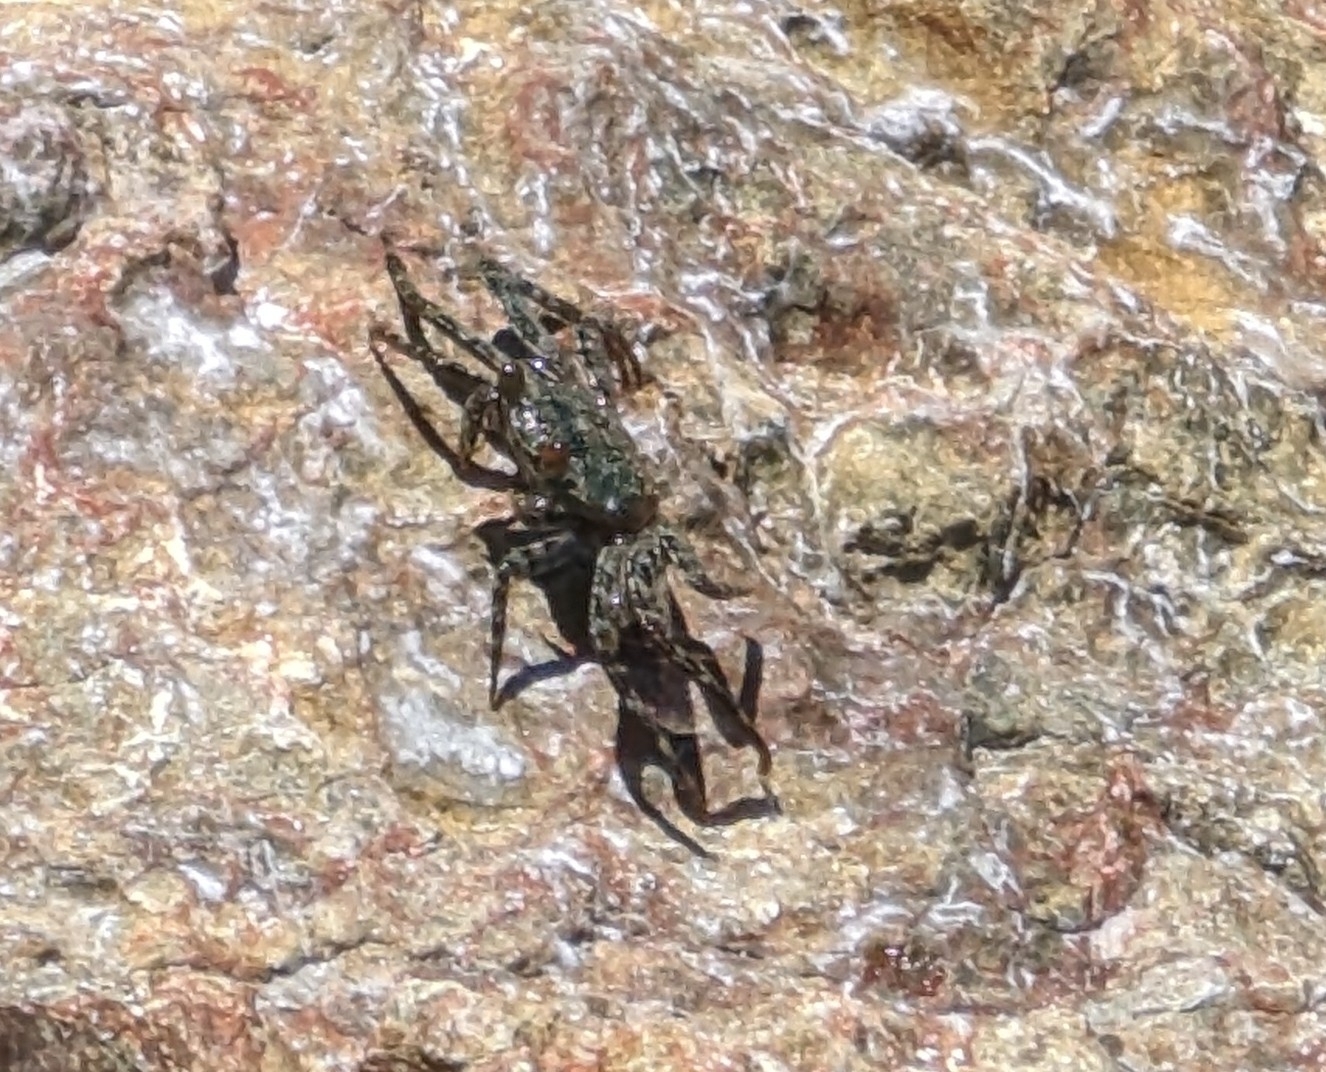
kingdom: Animalia
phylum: Arthropoda
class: Malacostraca
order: Decapoda
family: Grapsidae
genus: Grapsus
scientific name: Grapsus grapsus
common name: Sally lightfoot
